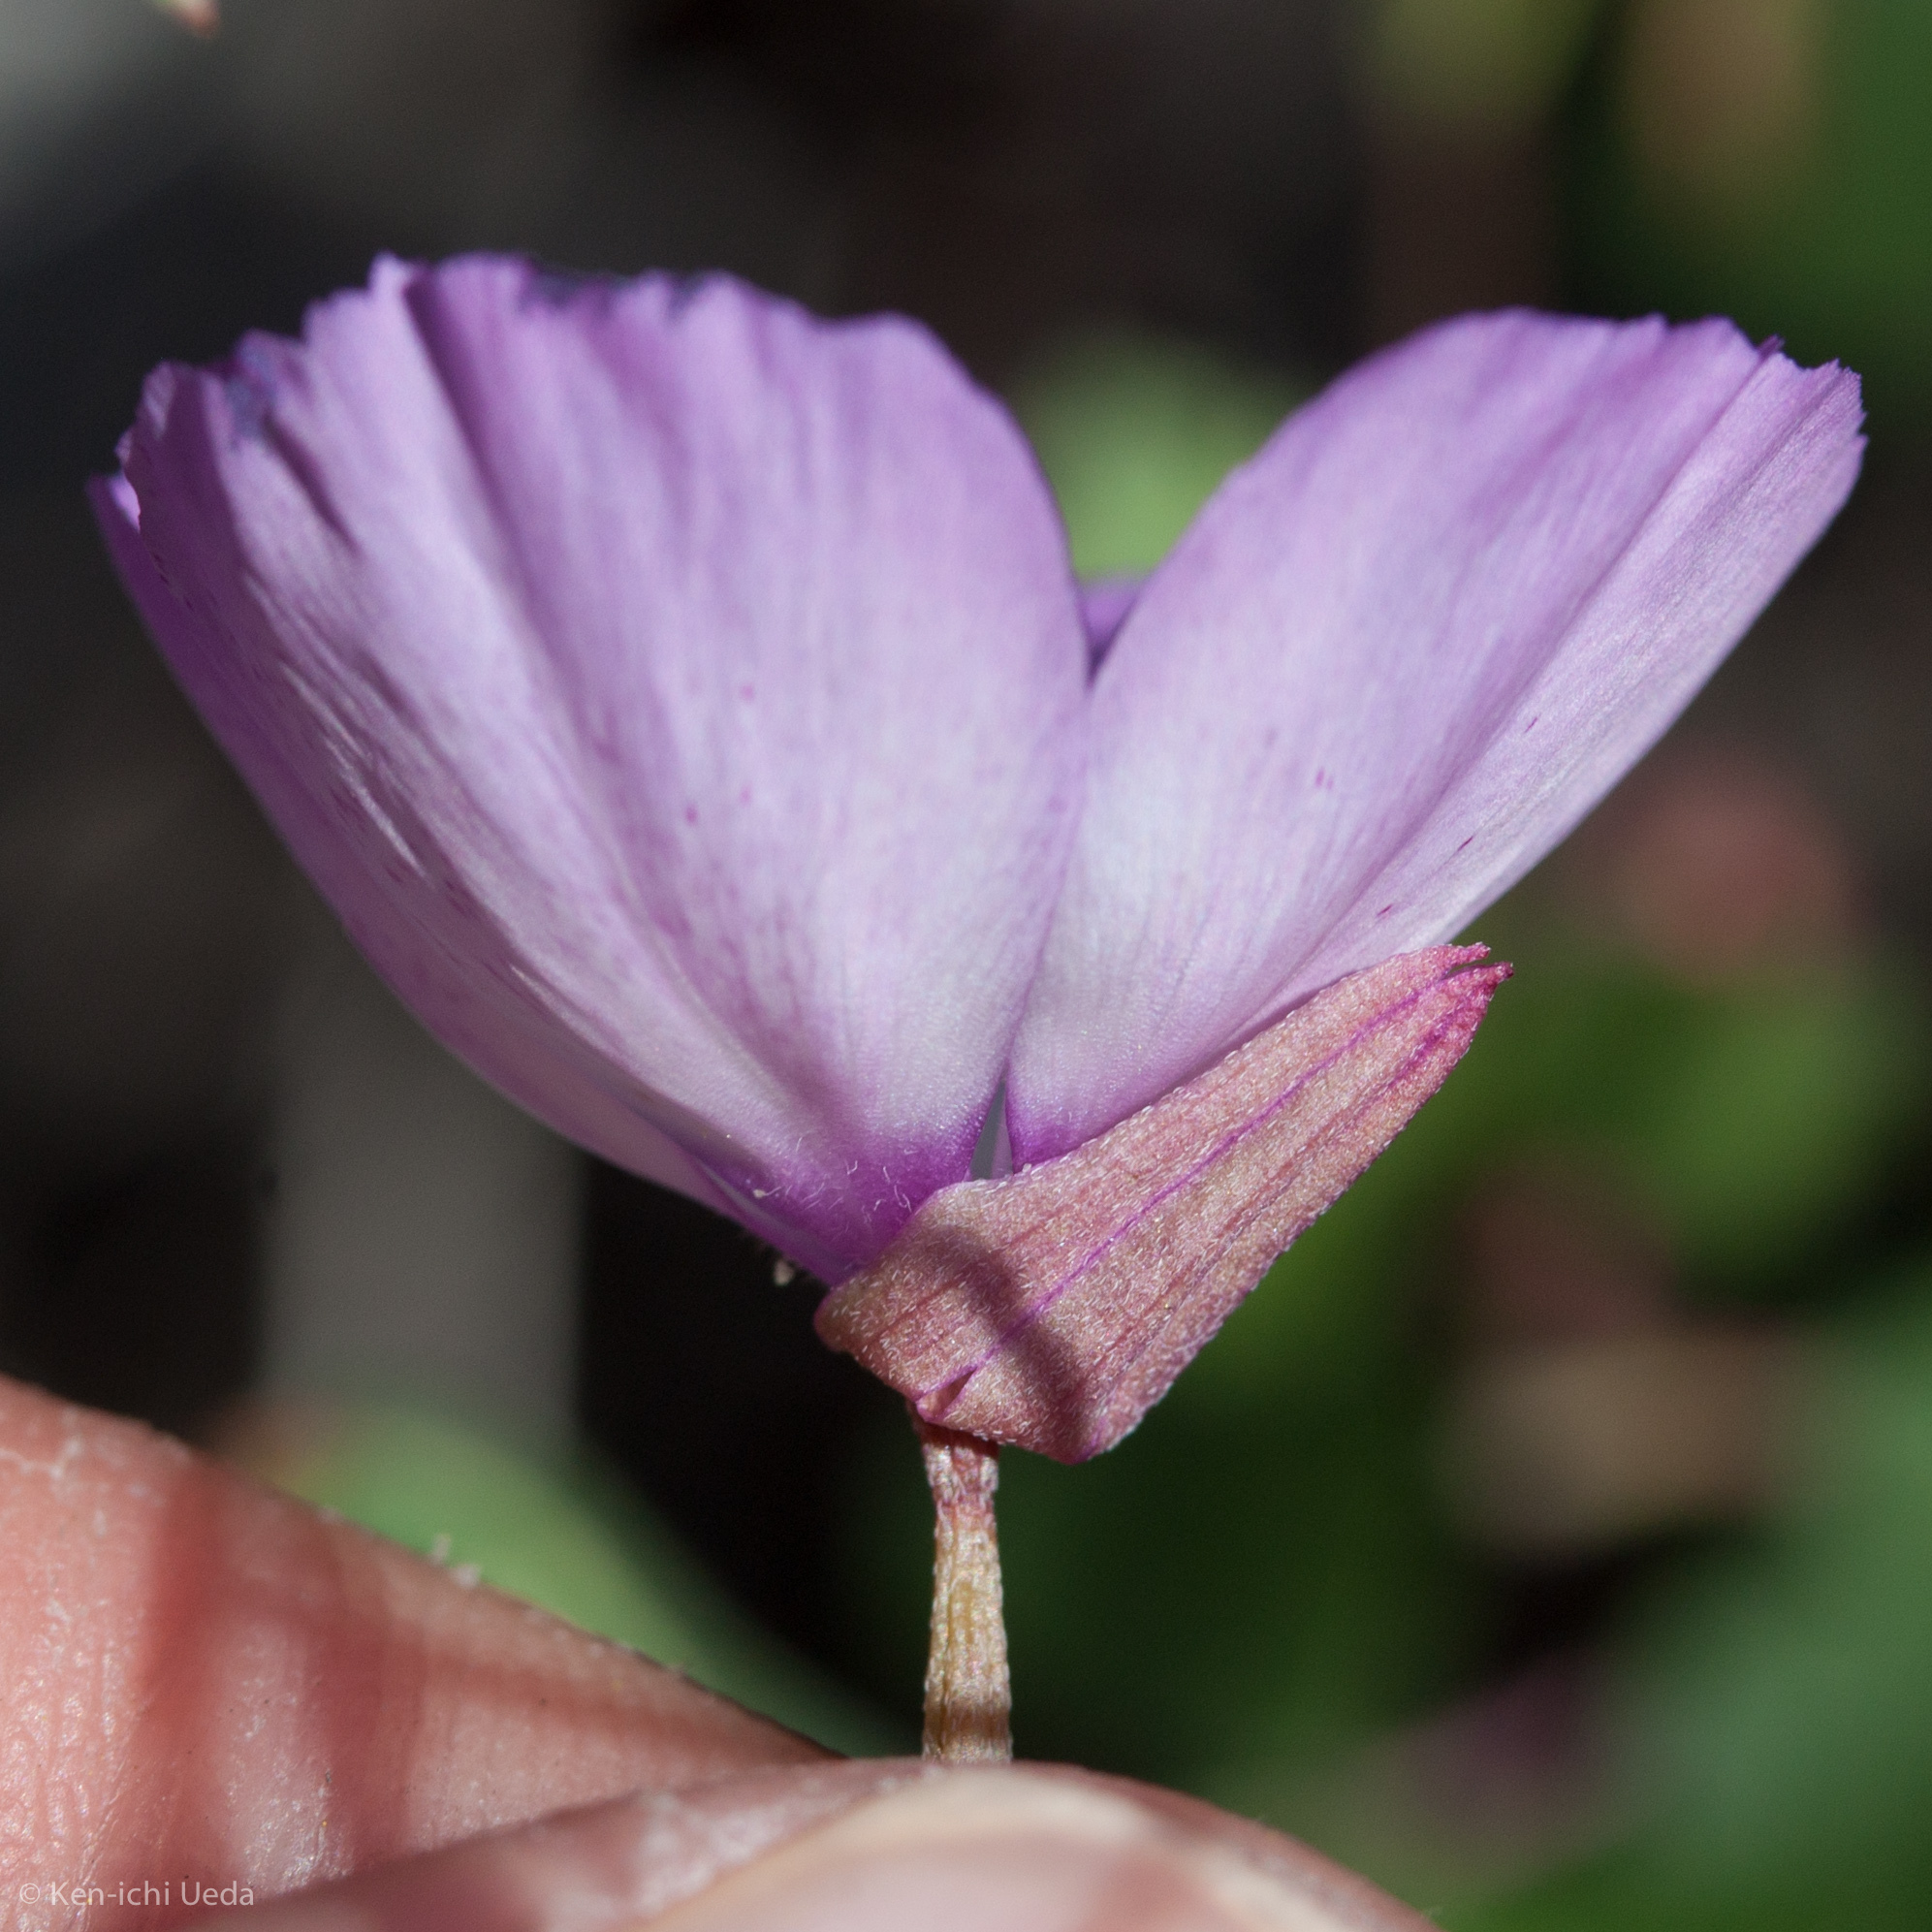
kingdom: Plantae
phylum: Tracheophyta
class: Magnoliopsida
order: Myrtales
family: Onagraceae
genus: Clarkia
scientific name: Clarkia cylindrica
